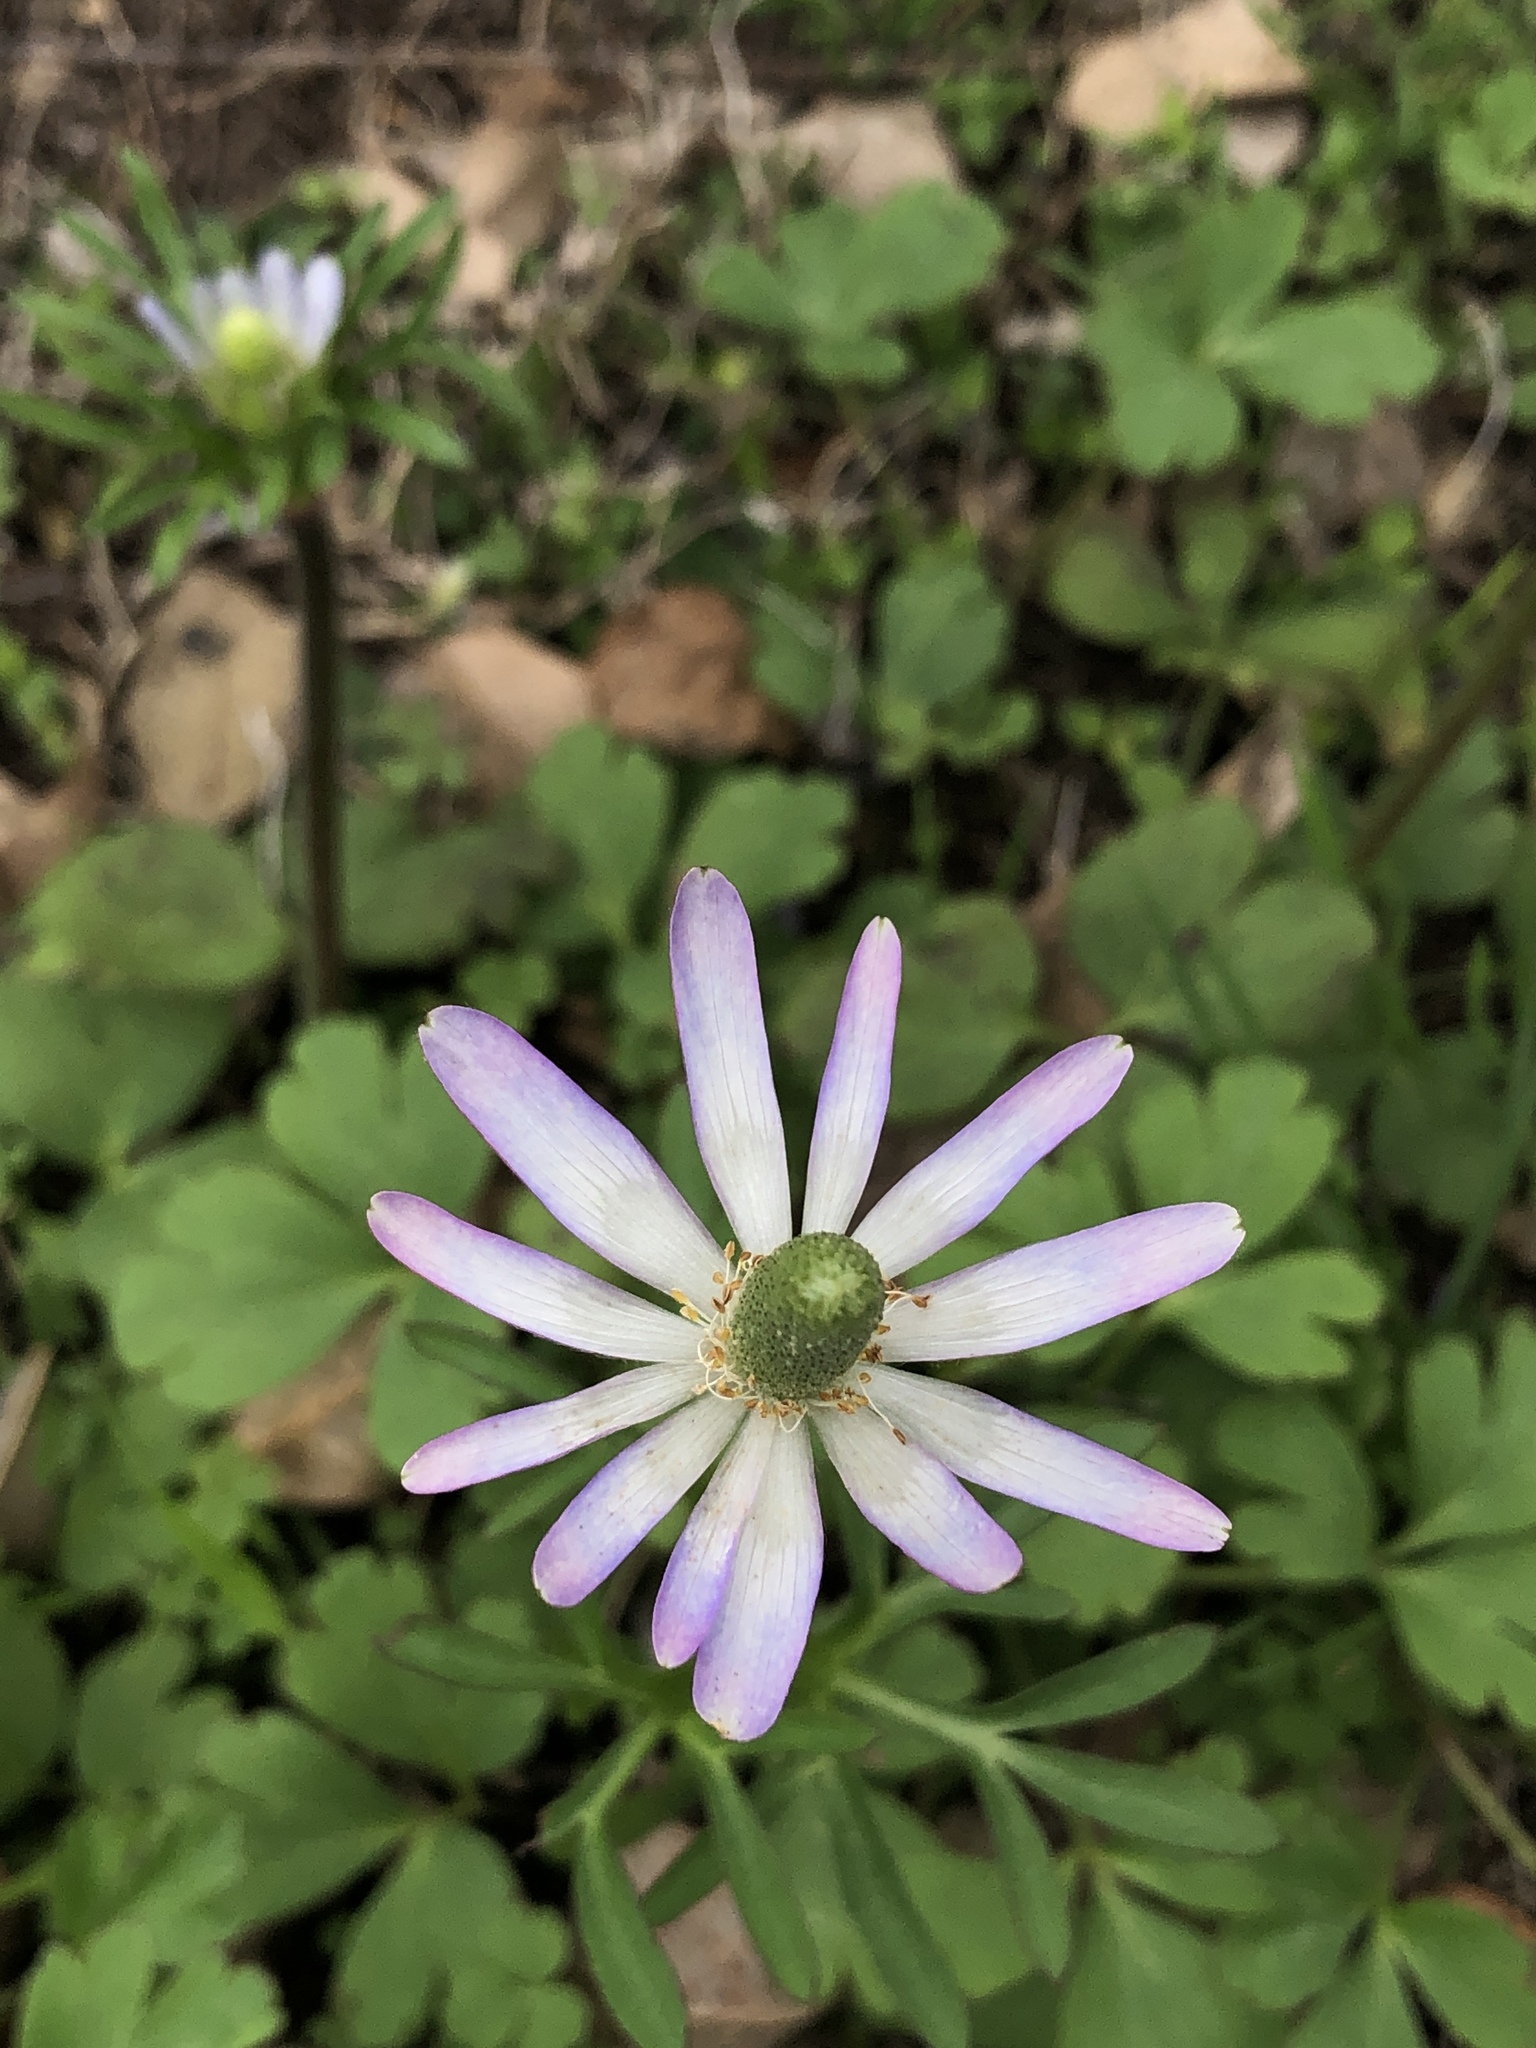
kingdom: Plantae
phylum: Tracheophyta
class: Magnoliopsida
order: Ranunculales
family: Ranunculaceae
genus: Anemone
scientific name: Anemone berlandieri
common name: Ten-petal anemone
